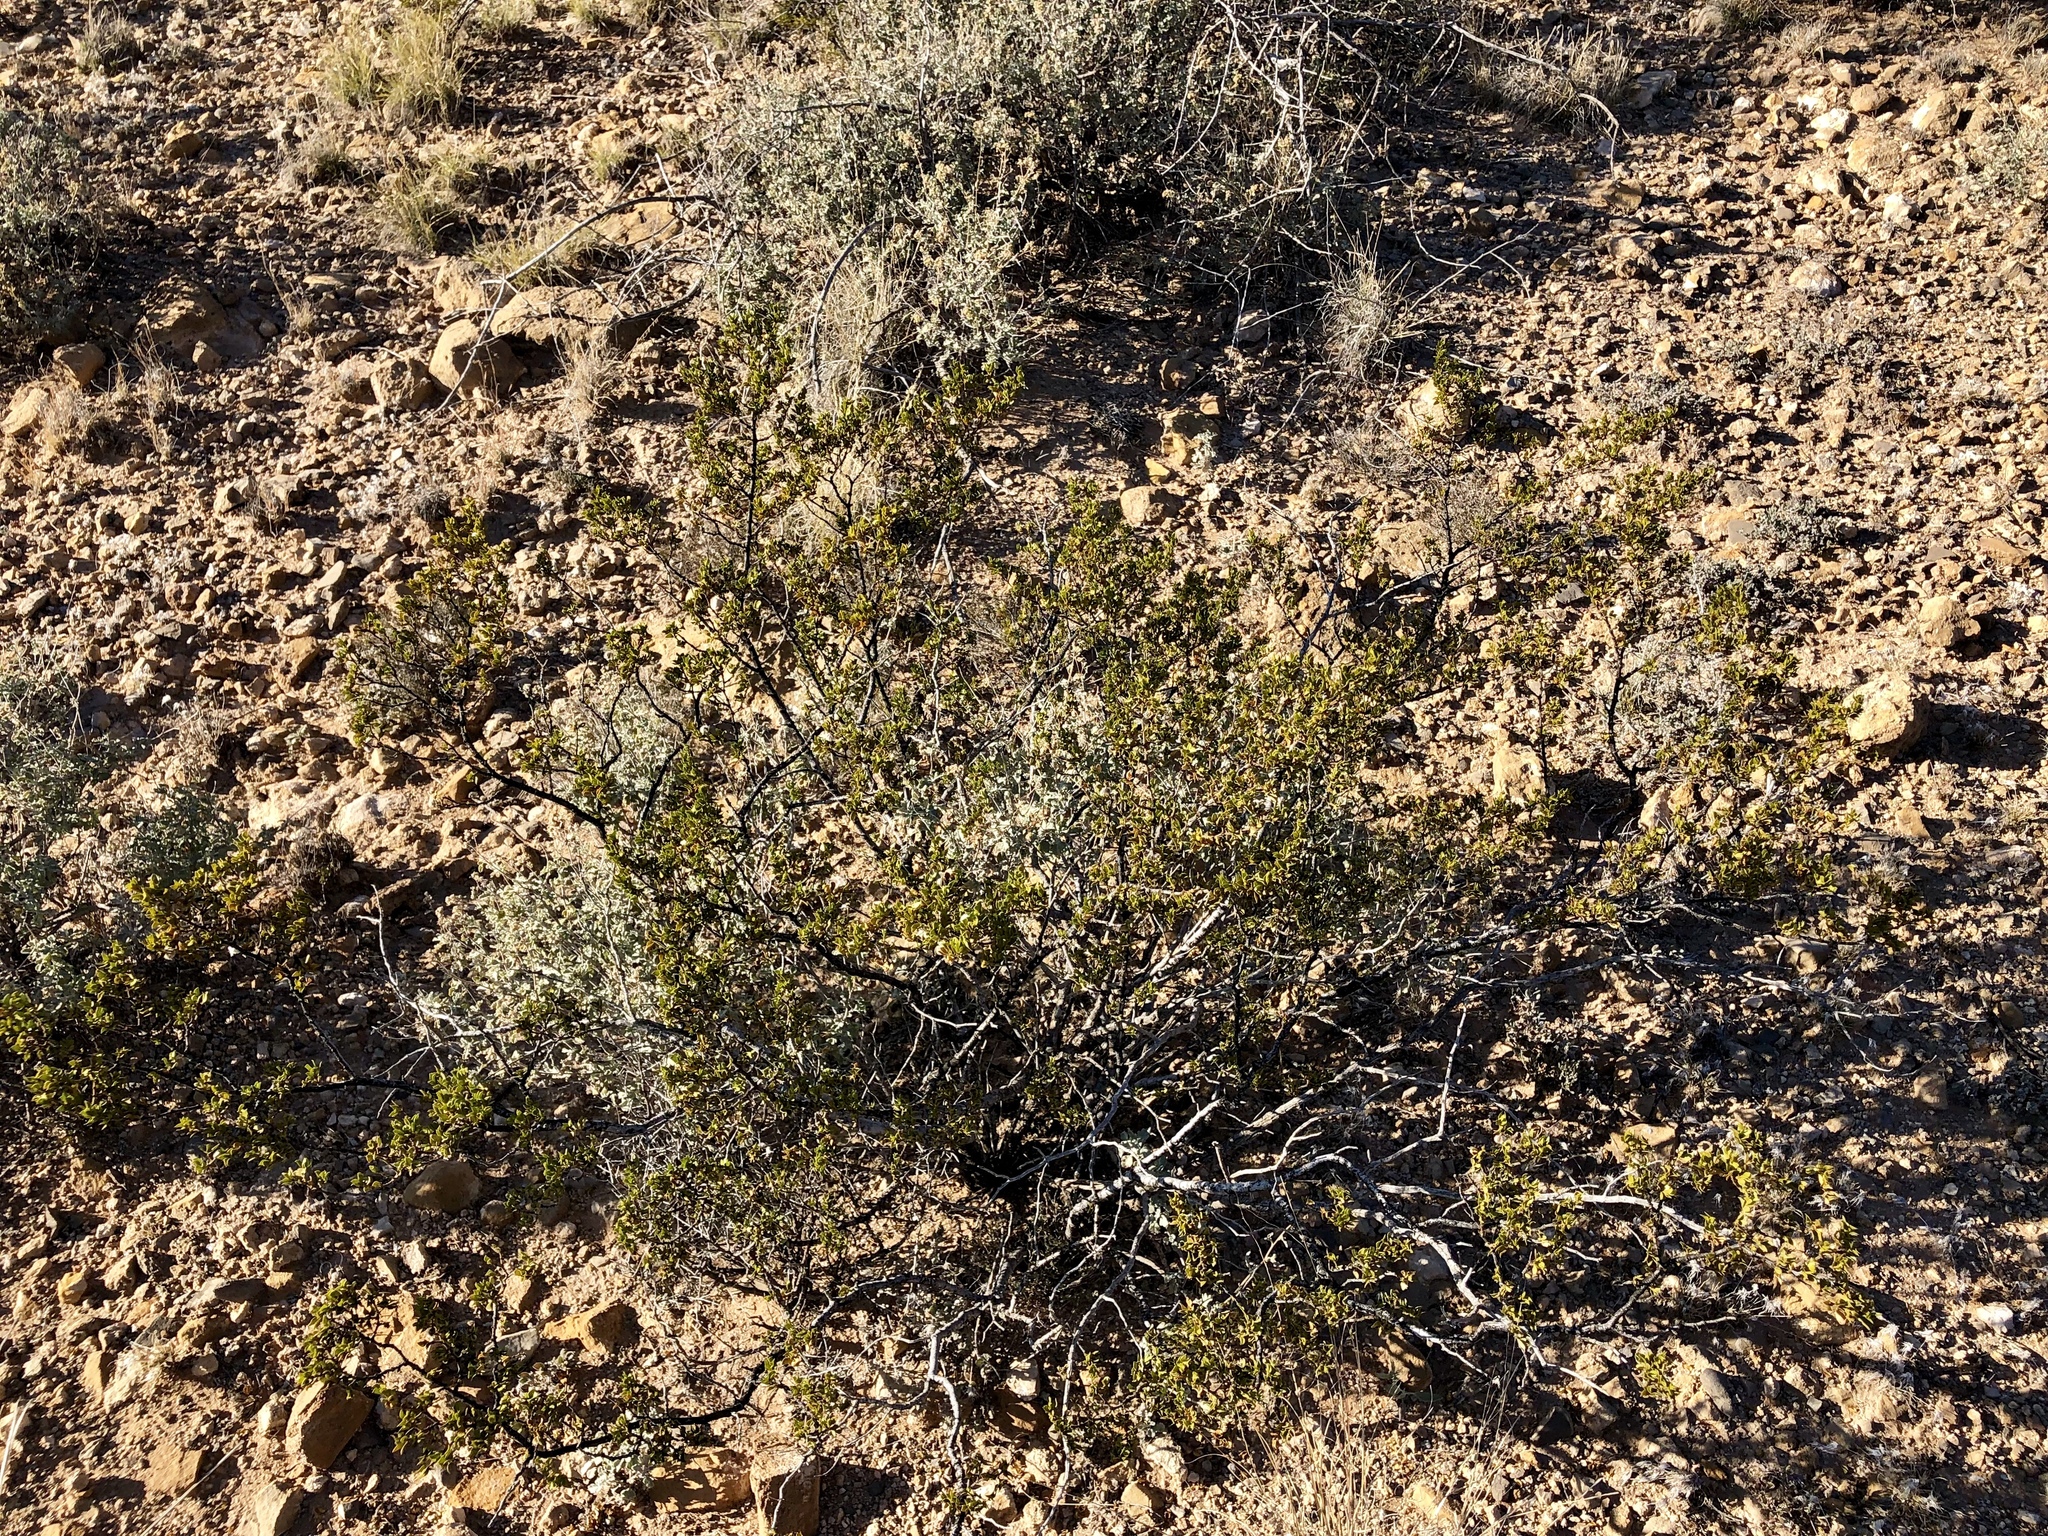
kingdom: Plantae
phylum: Tracheophyta
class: Magnoliopsida
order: Zygophyllales
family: Zygophyllaceae
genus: Larrea
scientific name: Larrea tridentata
